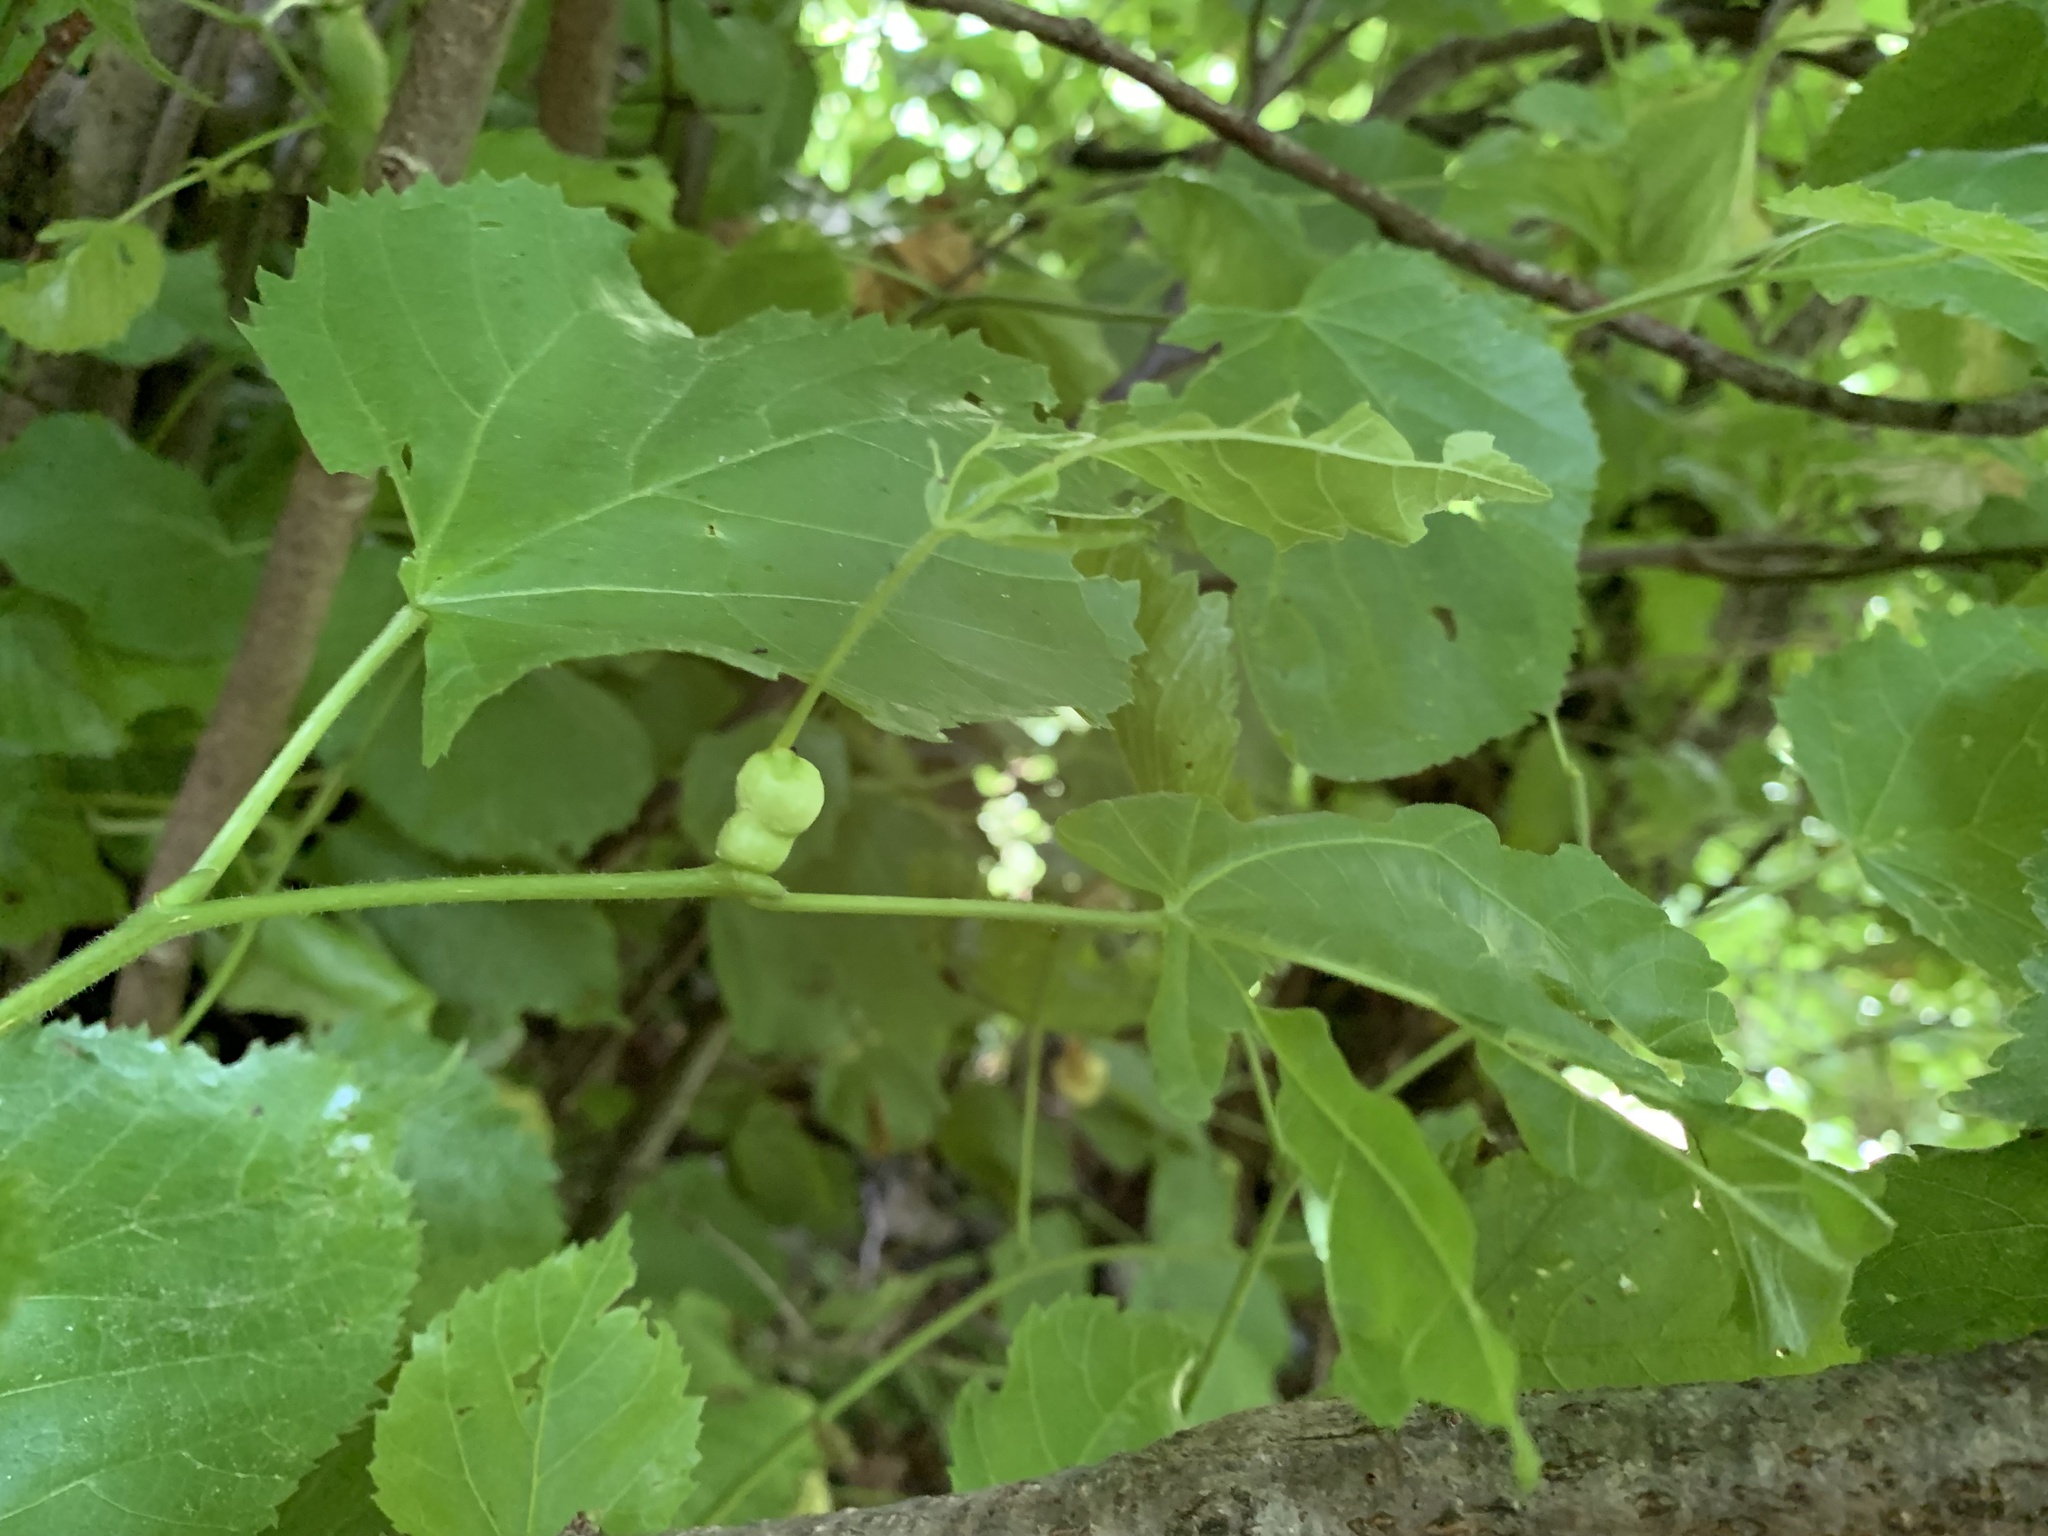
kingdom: Animalia
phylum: Arthropoda
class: Insecta
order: Diptera
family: Cecidomyiidae
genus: Contarinia
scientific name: Contarinia tiliarum
